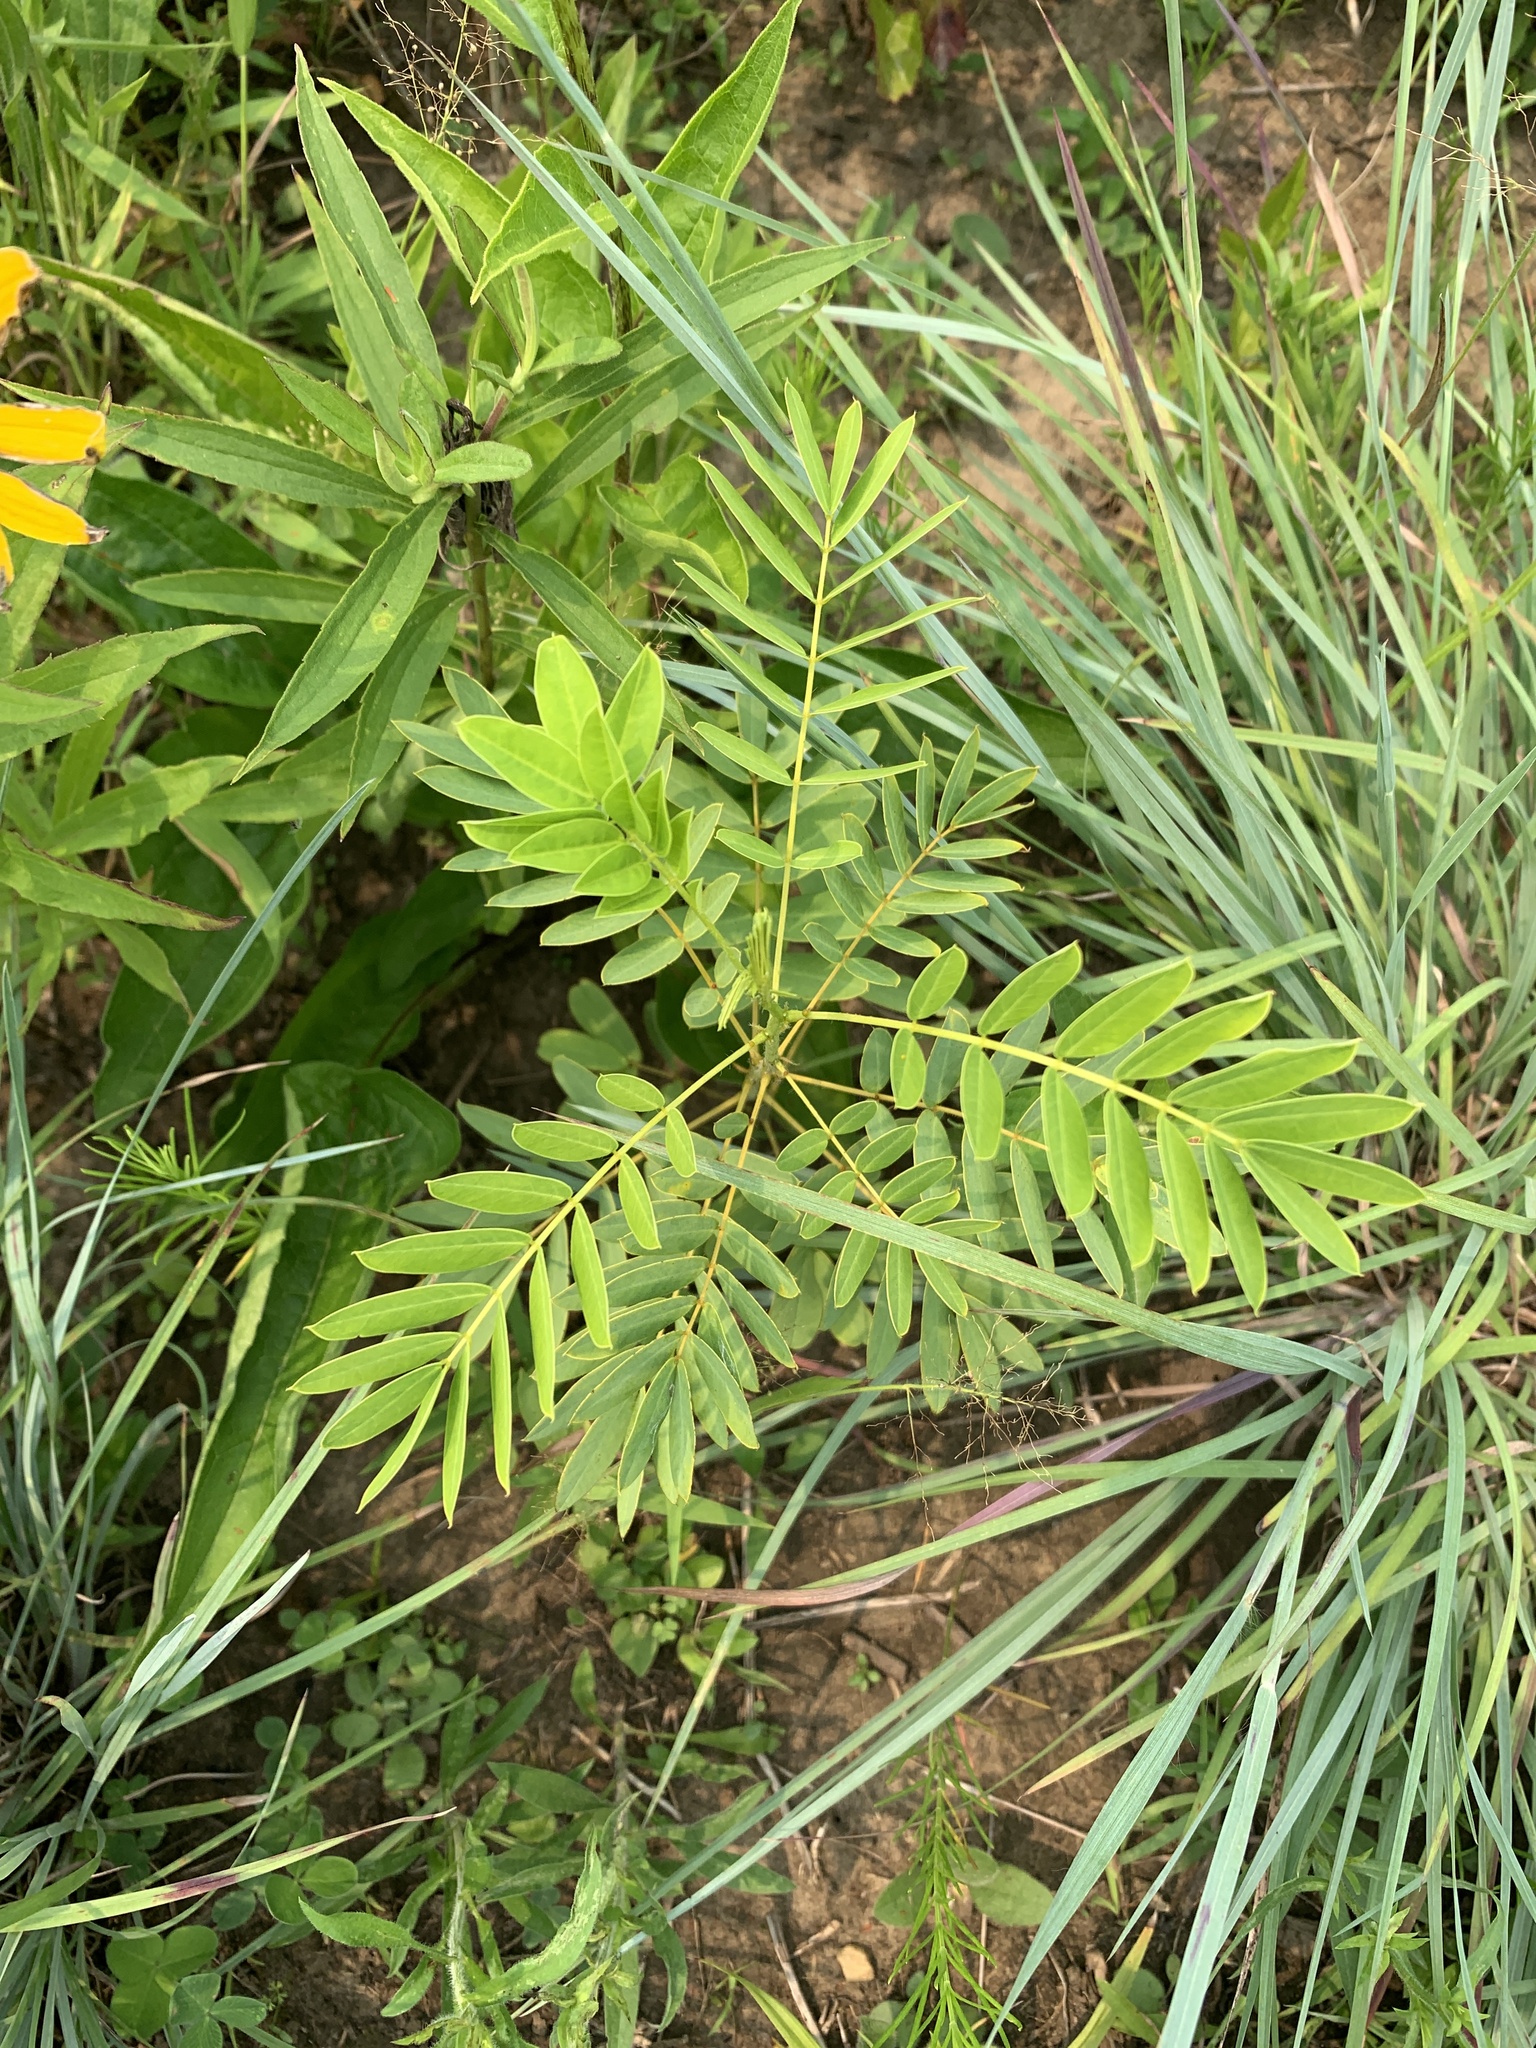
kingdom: Plantae
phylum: Tracheophyta
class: Magnoliopsida
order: Fabales
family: Fabaceae
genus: Senna
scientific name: Senna hebecarpa
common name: Wild senna
